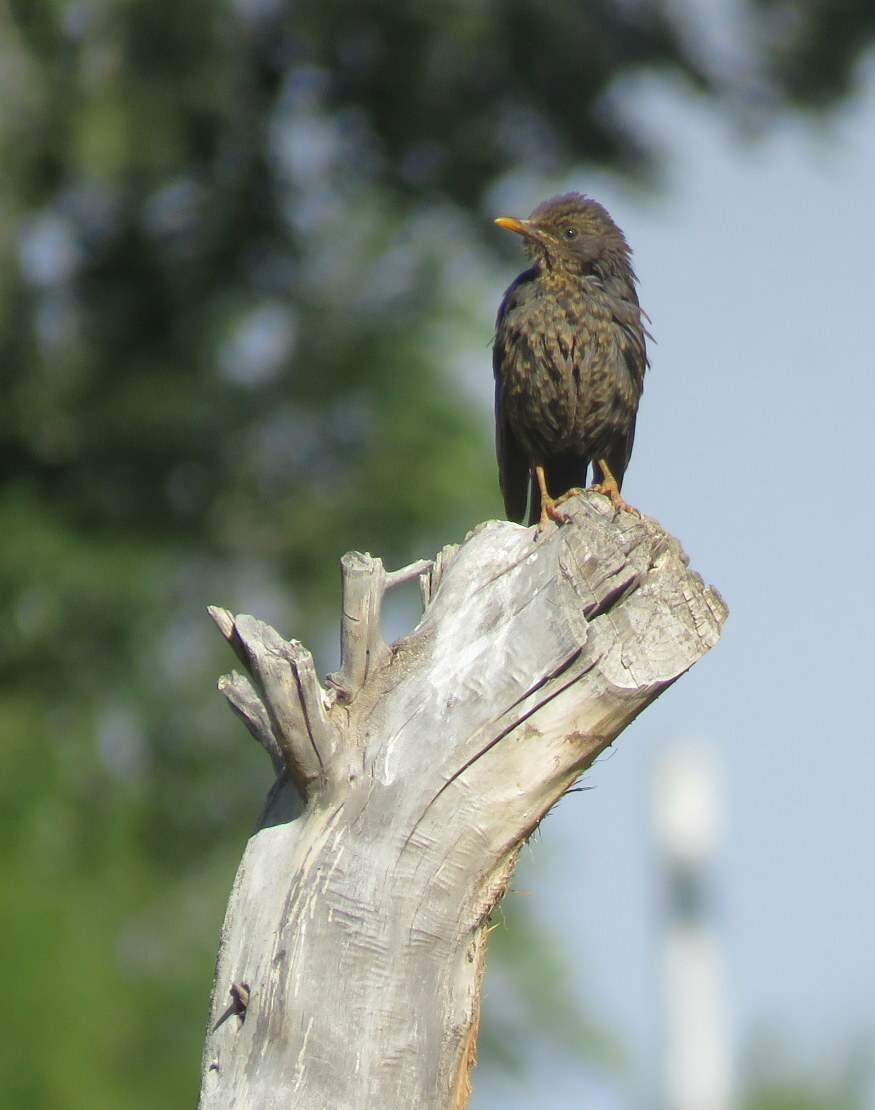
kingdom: Animalia
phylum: Chordata
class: Aves
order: Passeriformes
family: Turdidae
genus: Turdus
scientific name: Turdus chiguanco
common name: Chiguanco thrush
